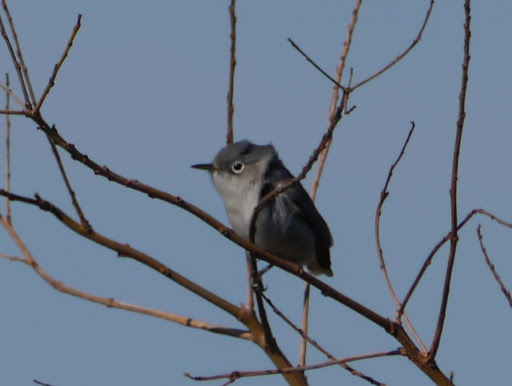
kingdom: Animalia
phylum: Chordata
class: Aves
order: Passeriformes
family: Polioptilidae
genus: Polioptila
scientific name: Polioptila caerulea
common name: Blue-gray gnatcatcher
